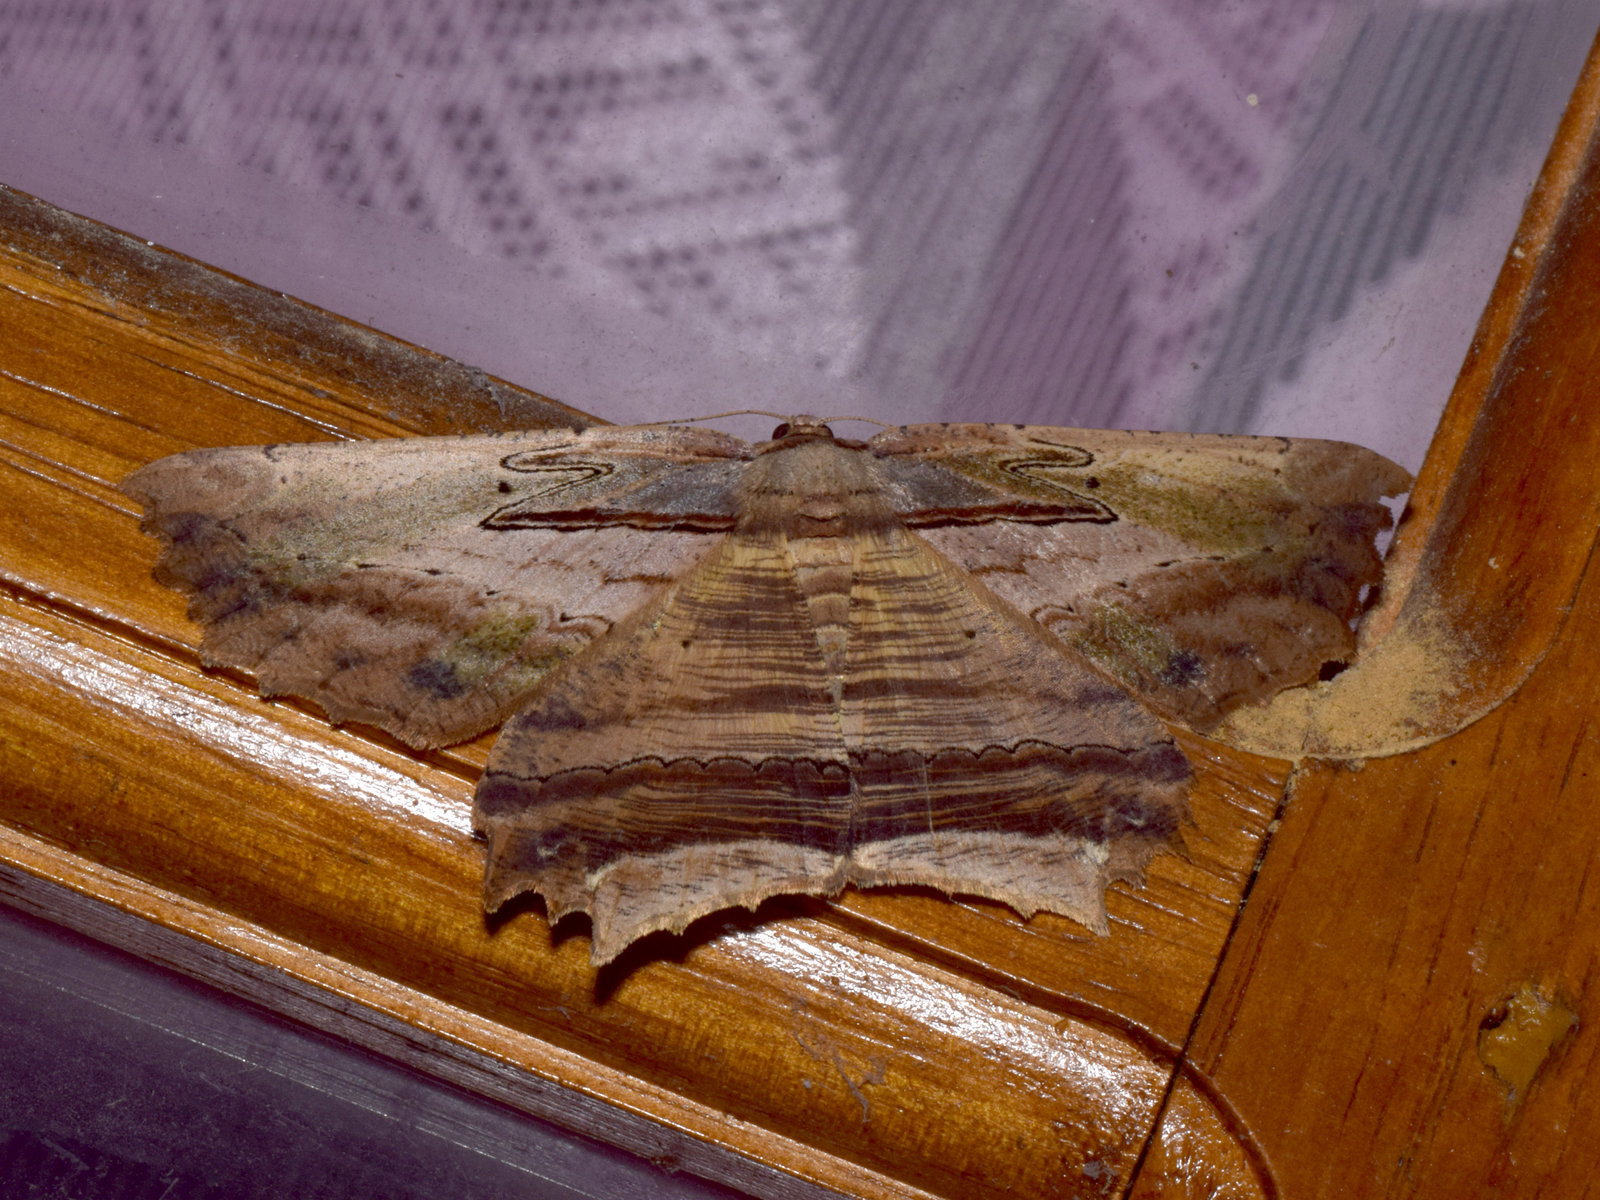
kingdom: Animalia
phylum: Arthropoda
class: Insecta
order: Lepidoptera
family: Geometridae
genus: Menophra
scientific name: Menophra serpentinaria
